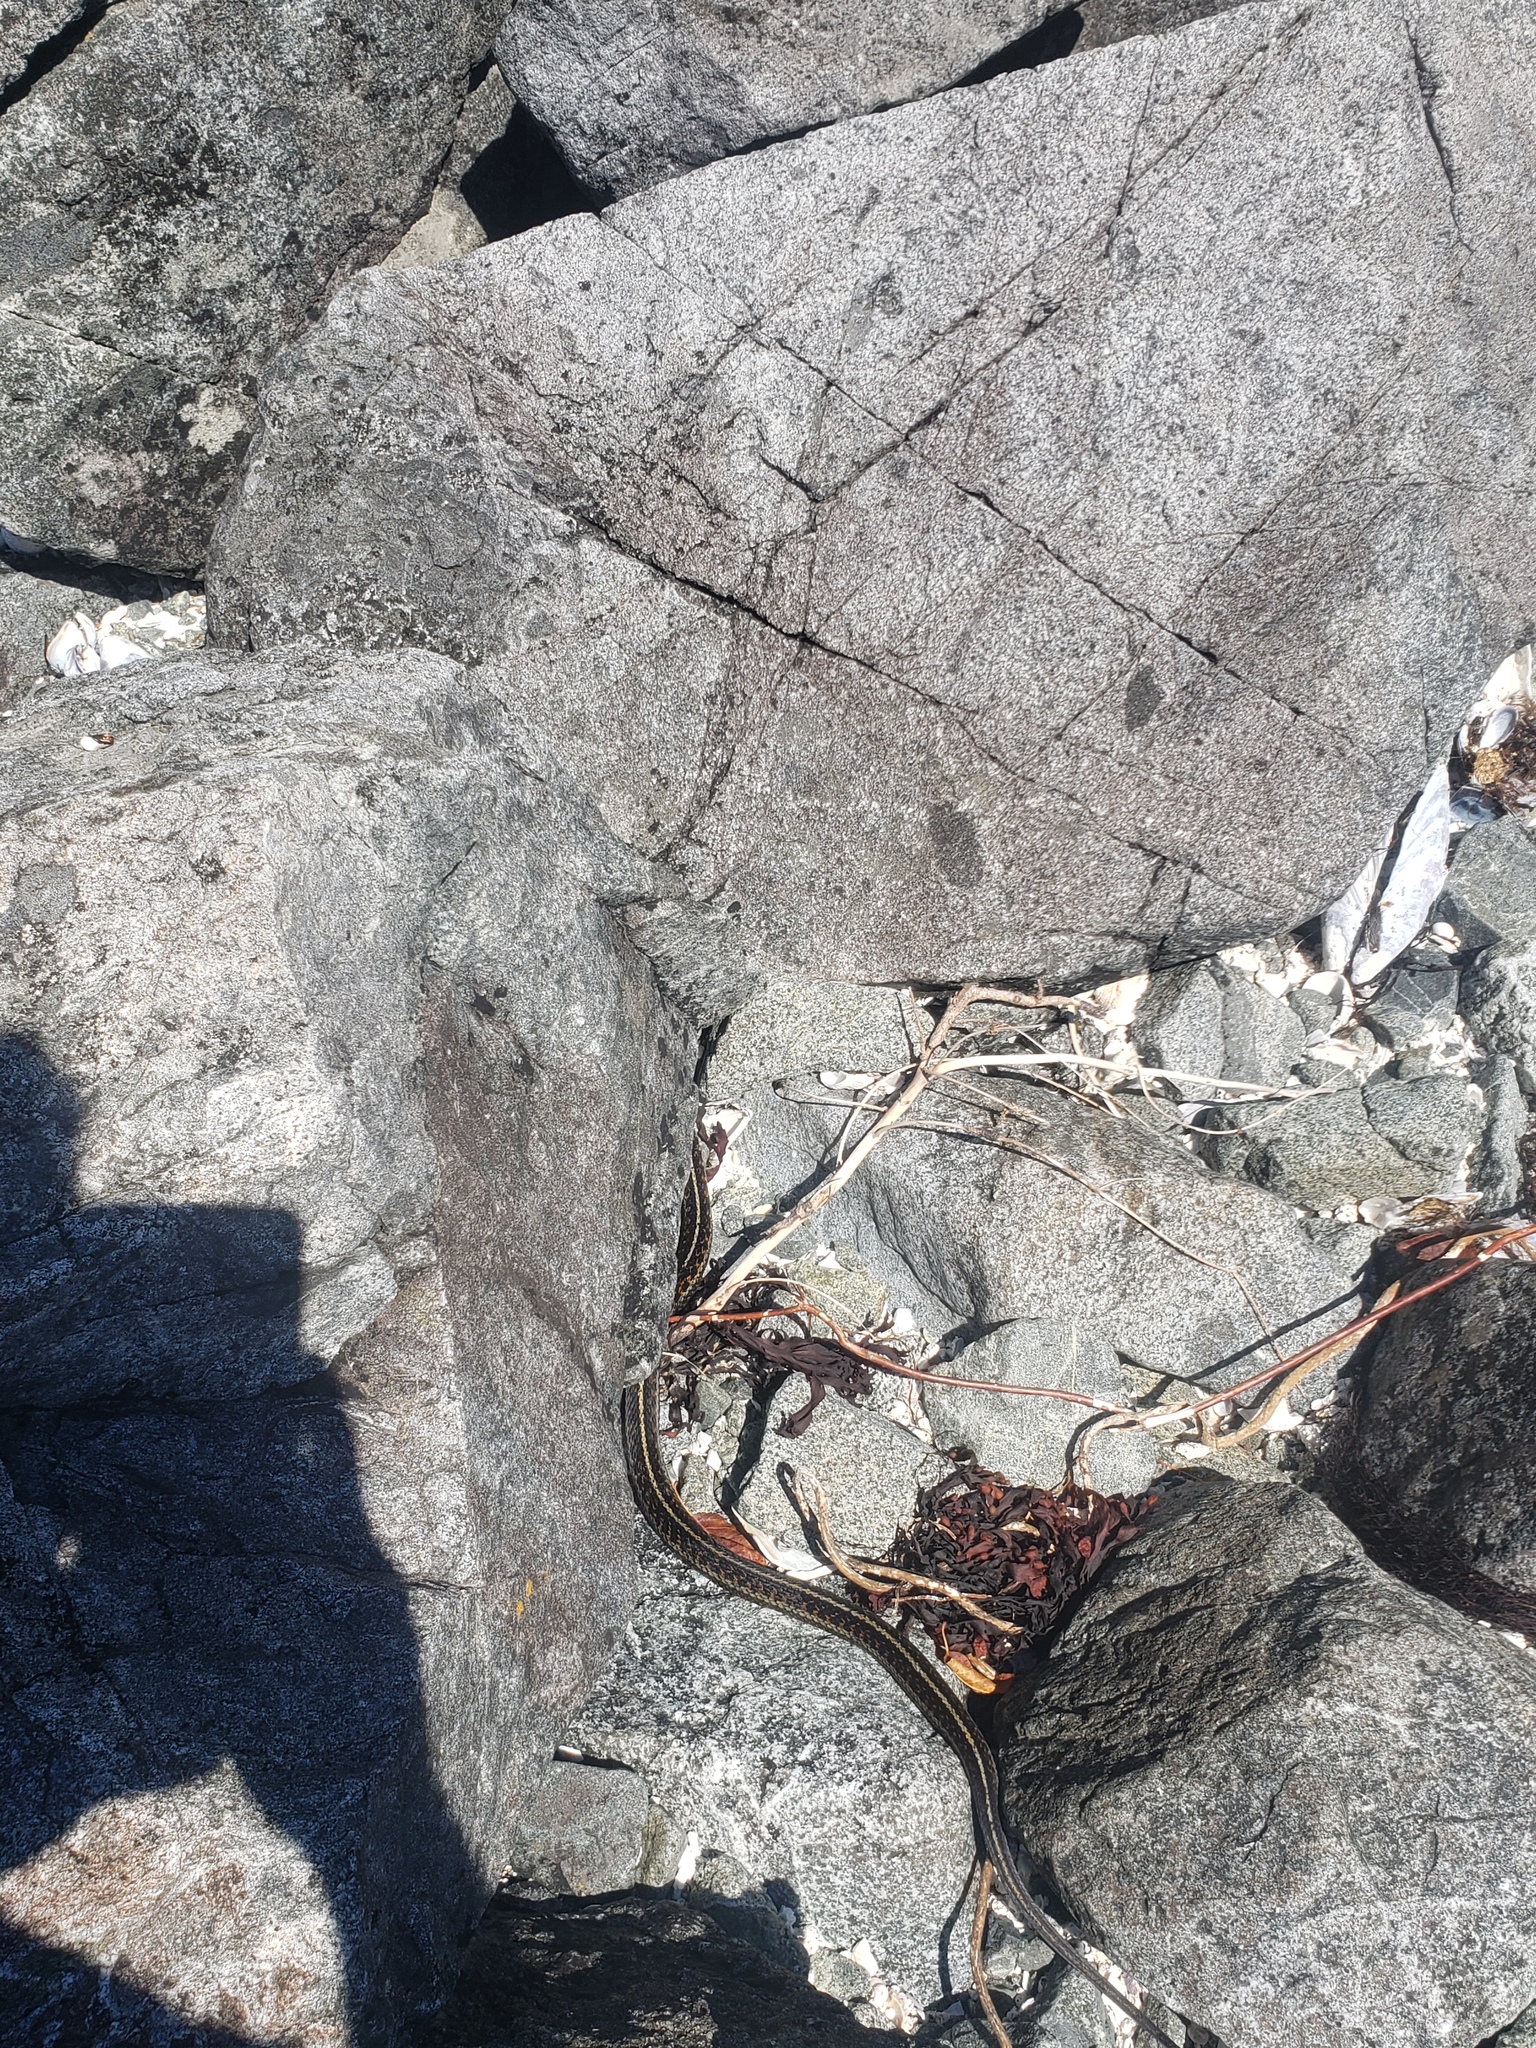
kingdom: Animalia
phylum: Chordata
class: Squamata
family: Colubridae
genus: Thamnophis
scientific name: Thamnophis sirtalis
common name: Common garter snake
